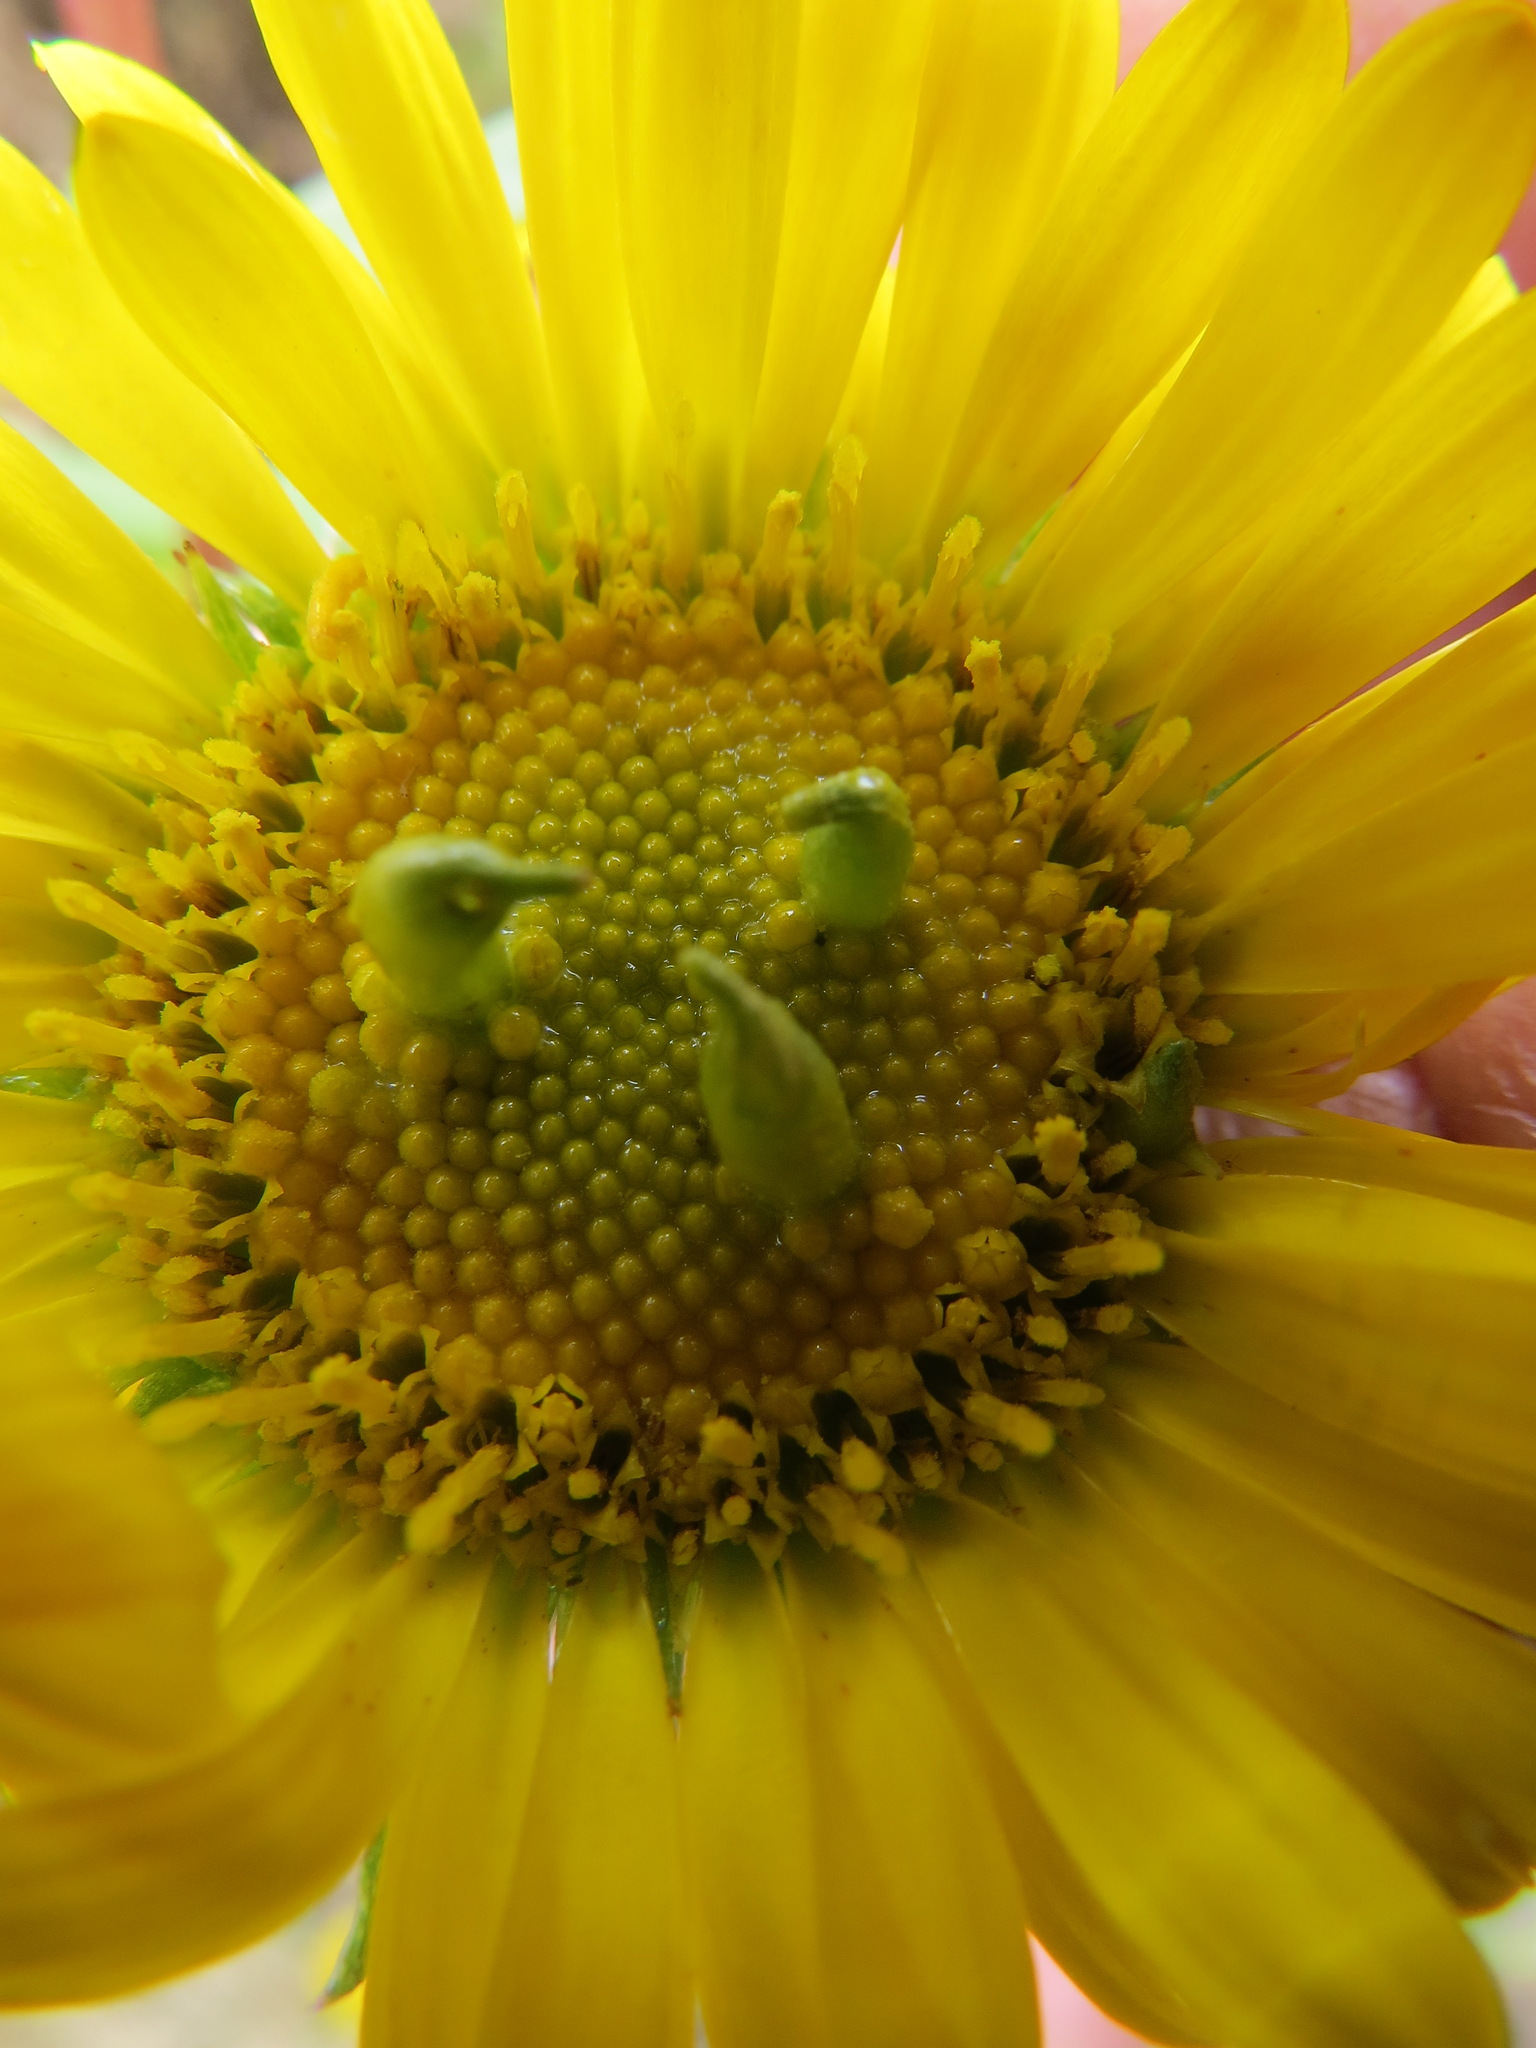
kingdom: Animalia
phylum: Arthropoda
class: Insecta
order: Diptera
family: Cecidomyiidae
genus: Rhopalomyia
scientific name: Rhopalomyia grindeliae
